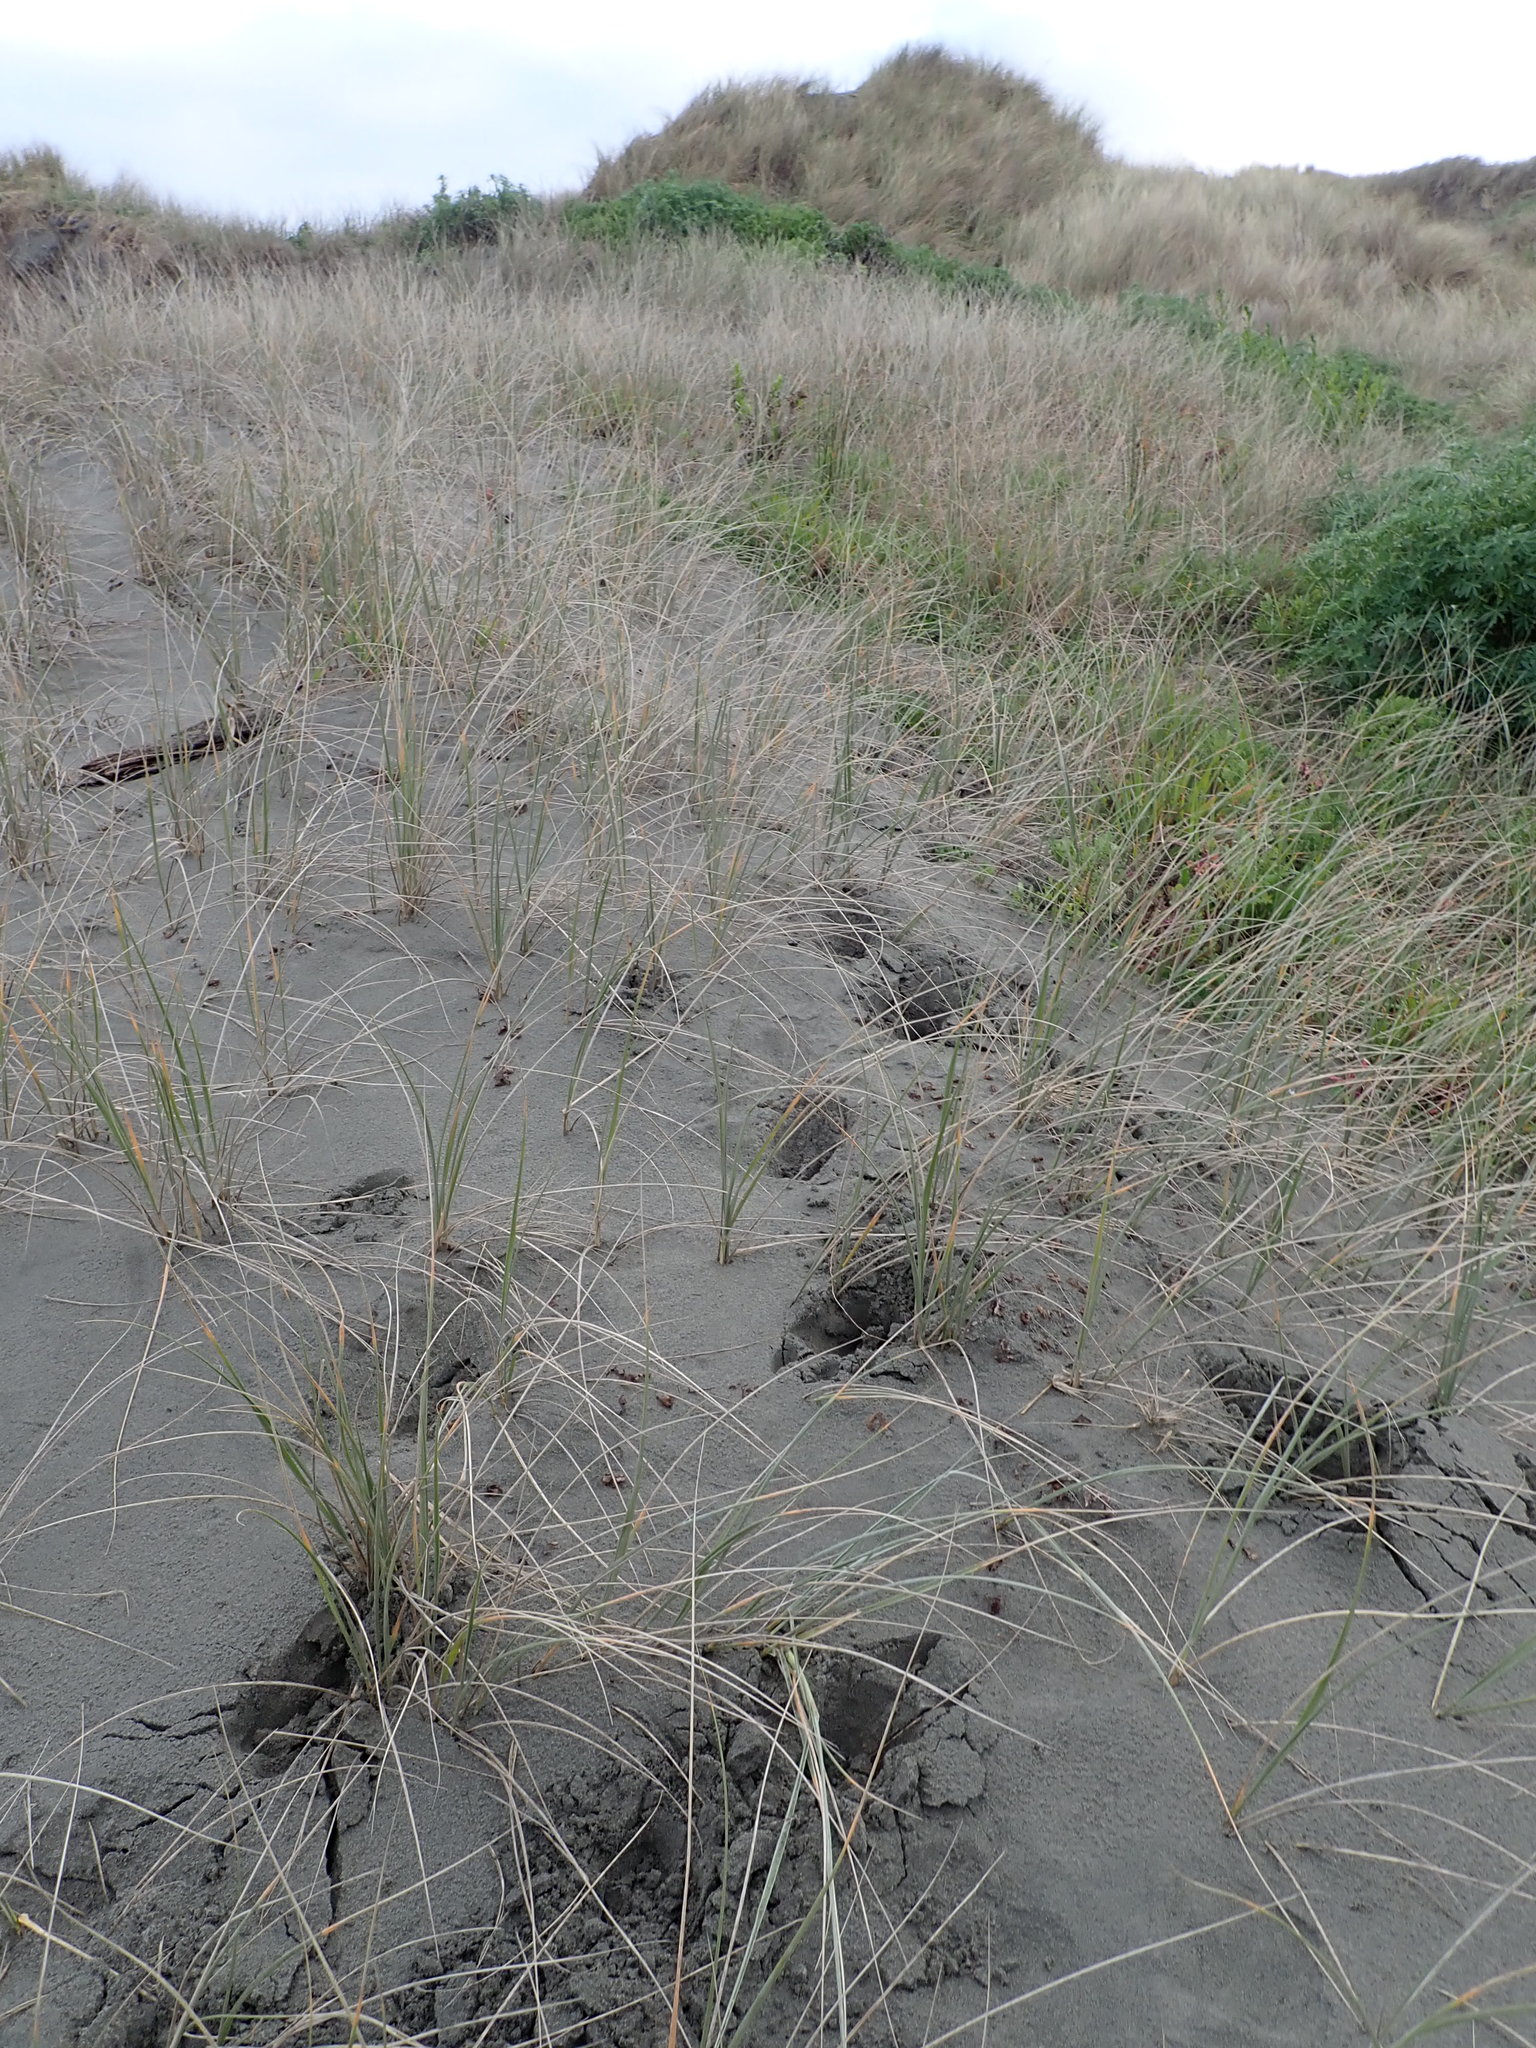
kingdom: Animalia
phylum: Chordata
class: Mammalia
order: Artiodactyla
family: Cervidae
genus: Rusa
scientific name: Rusa unicolor
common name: Sambar
